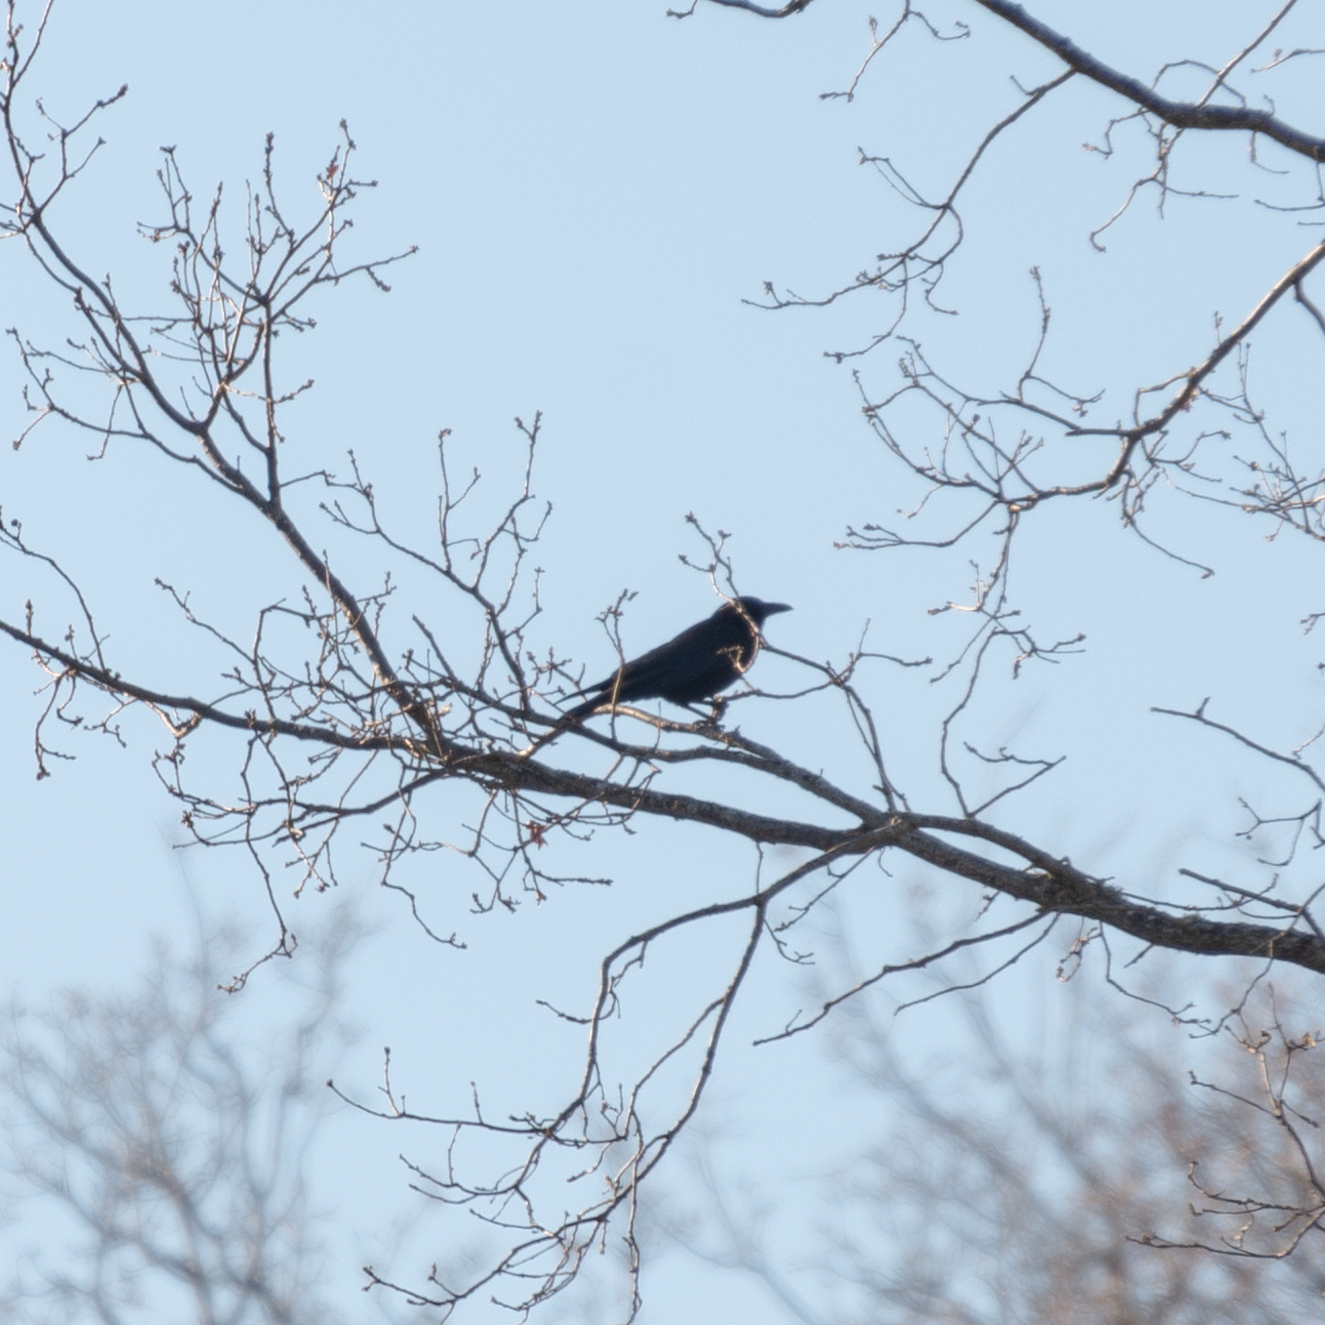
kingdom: Animalia
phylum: Chordata
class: Aves
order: Passeriformes
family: Corvidae
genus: Corvus
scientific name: Corvus corone
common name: Carrion crow
